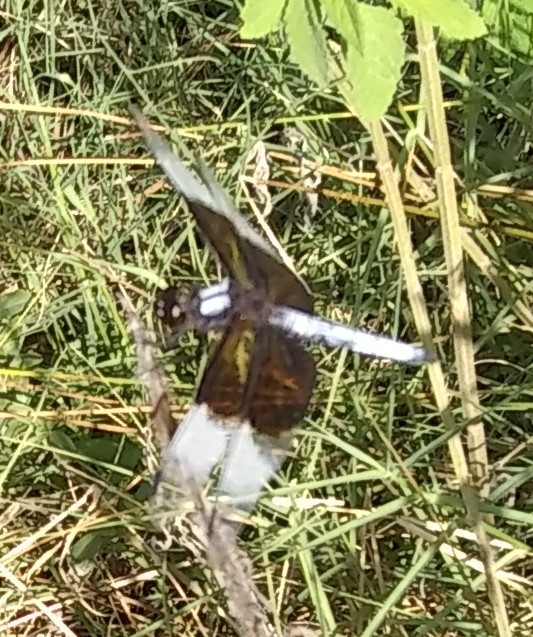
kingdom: Animalia
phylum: Arthropoda
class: Insecta
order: Odonata
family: Libellulidae
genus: Libellula
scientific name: Libellula luctuosa
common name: Widow skimmer
